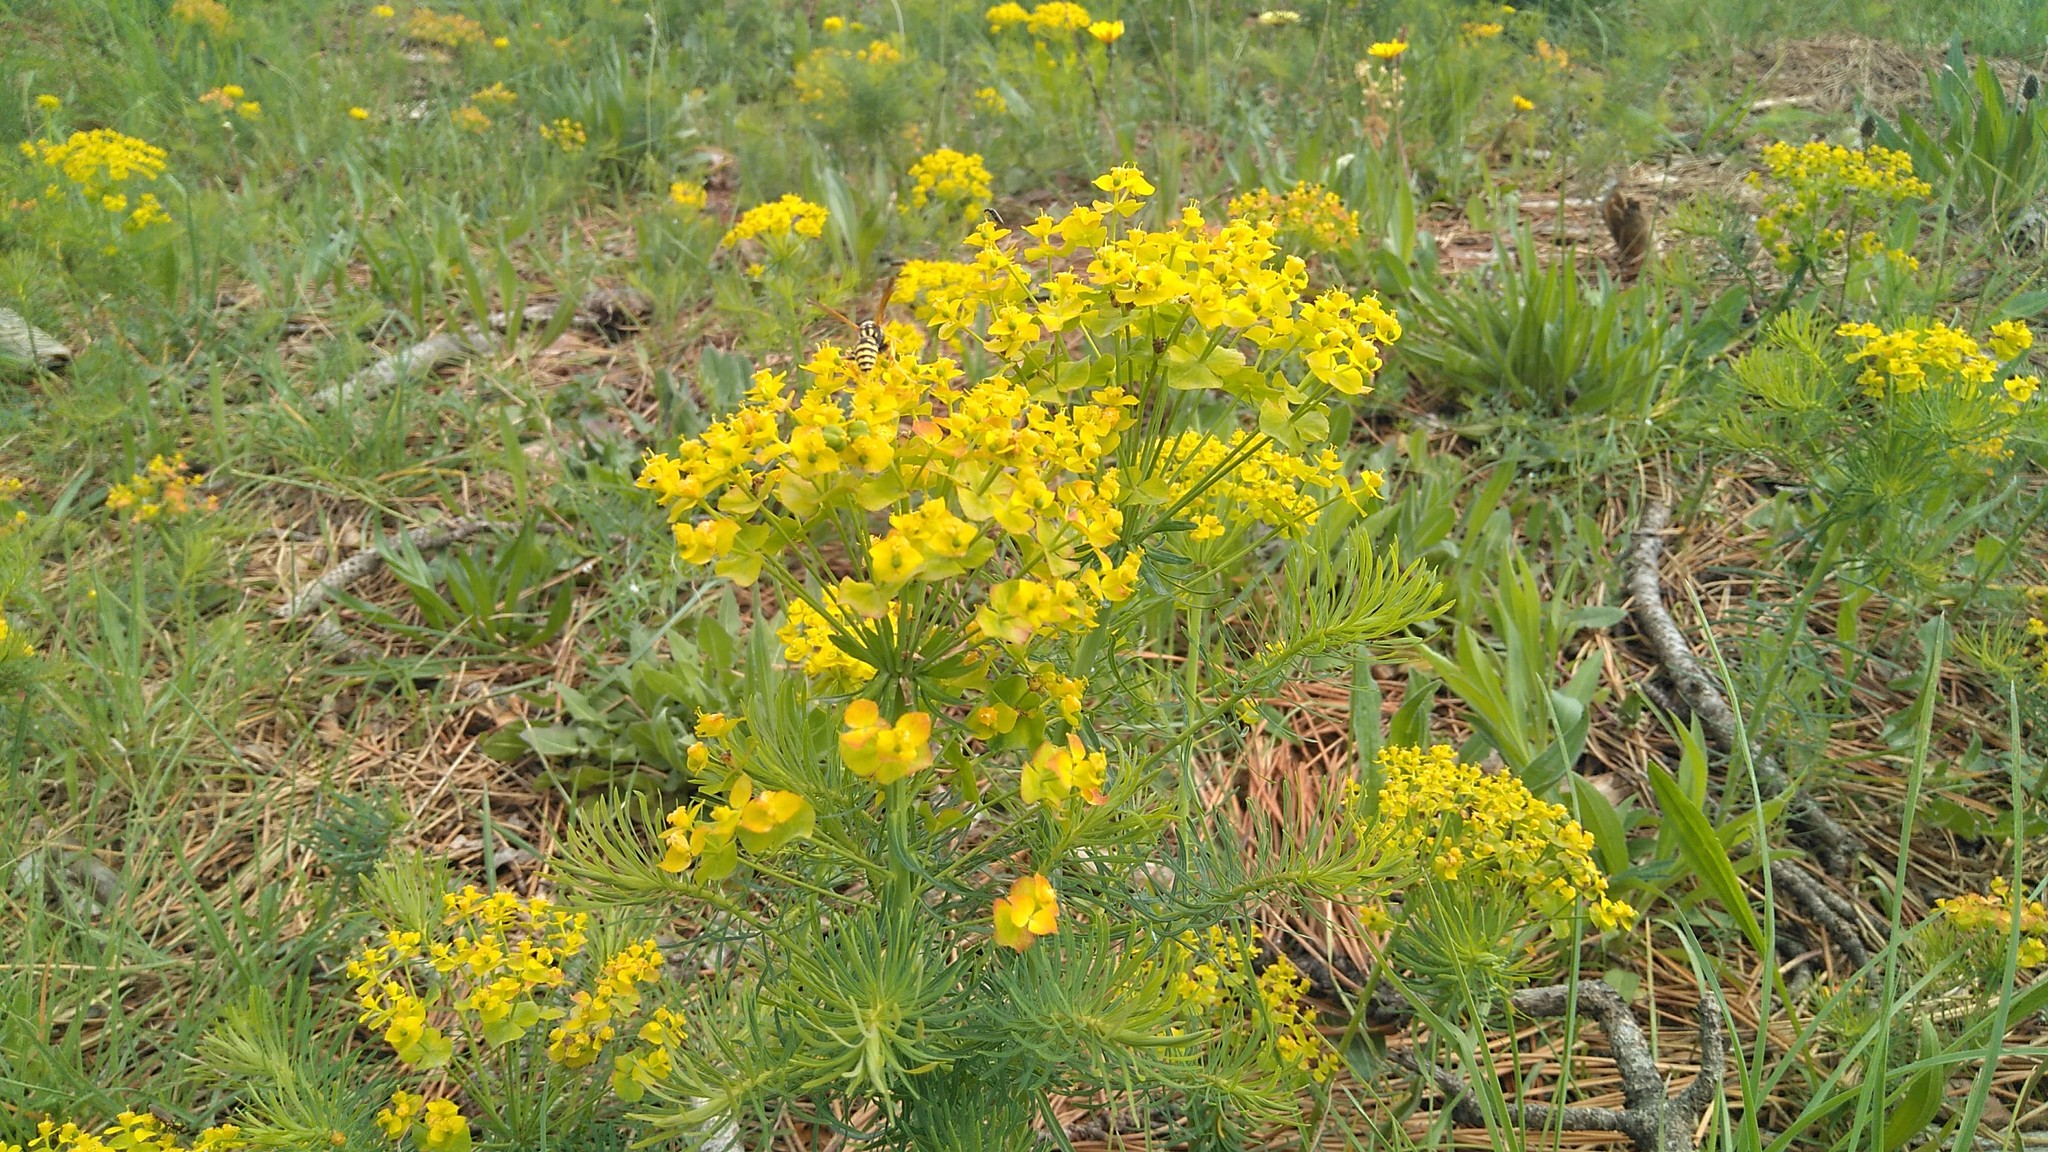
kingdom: Plantae
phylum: Tracheophyta
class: Magnoliopsida
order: Malpighiales
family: Euphorbiaceae
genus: Euphorbia
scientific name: Euphorbia cyparissias
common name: Cypress spurge
